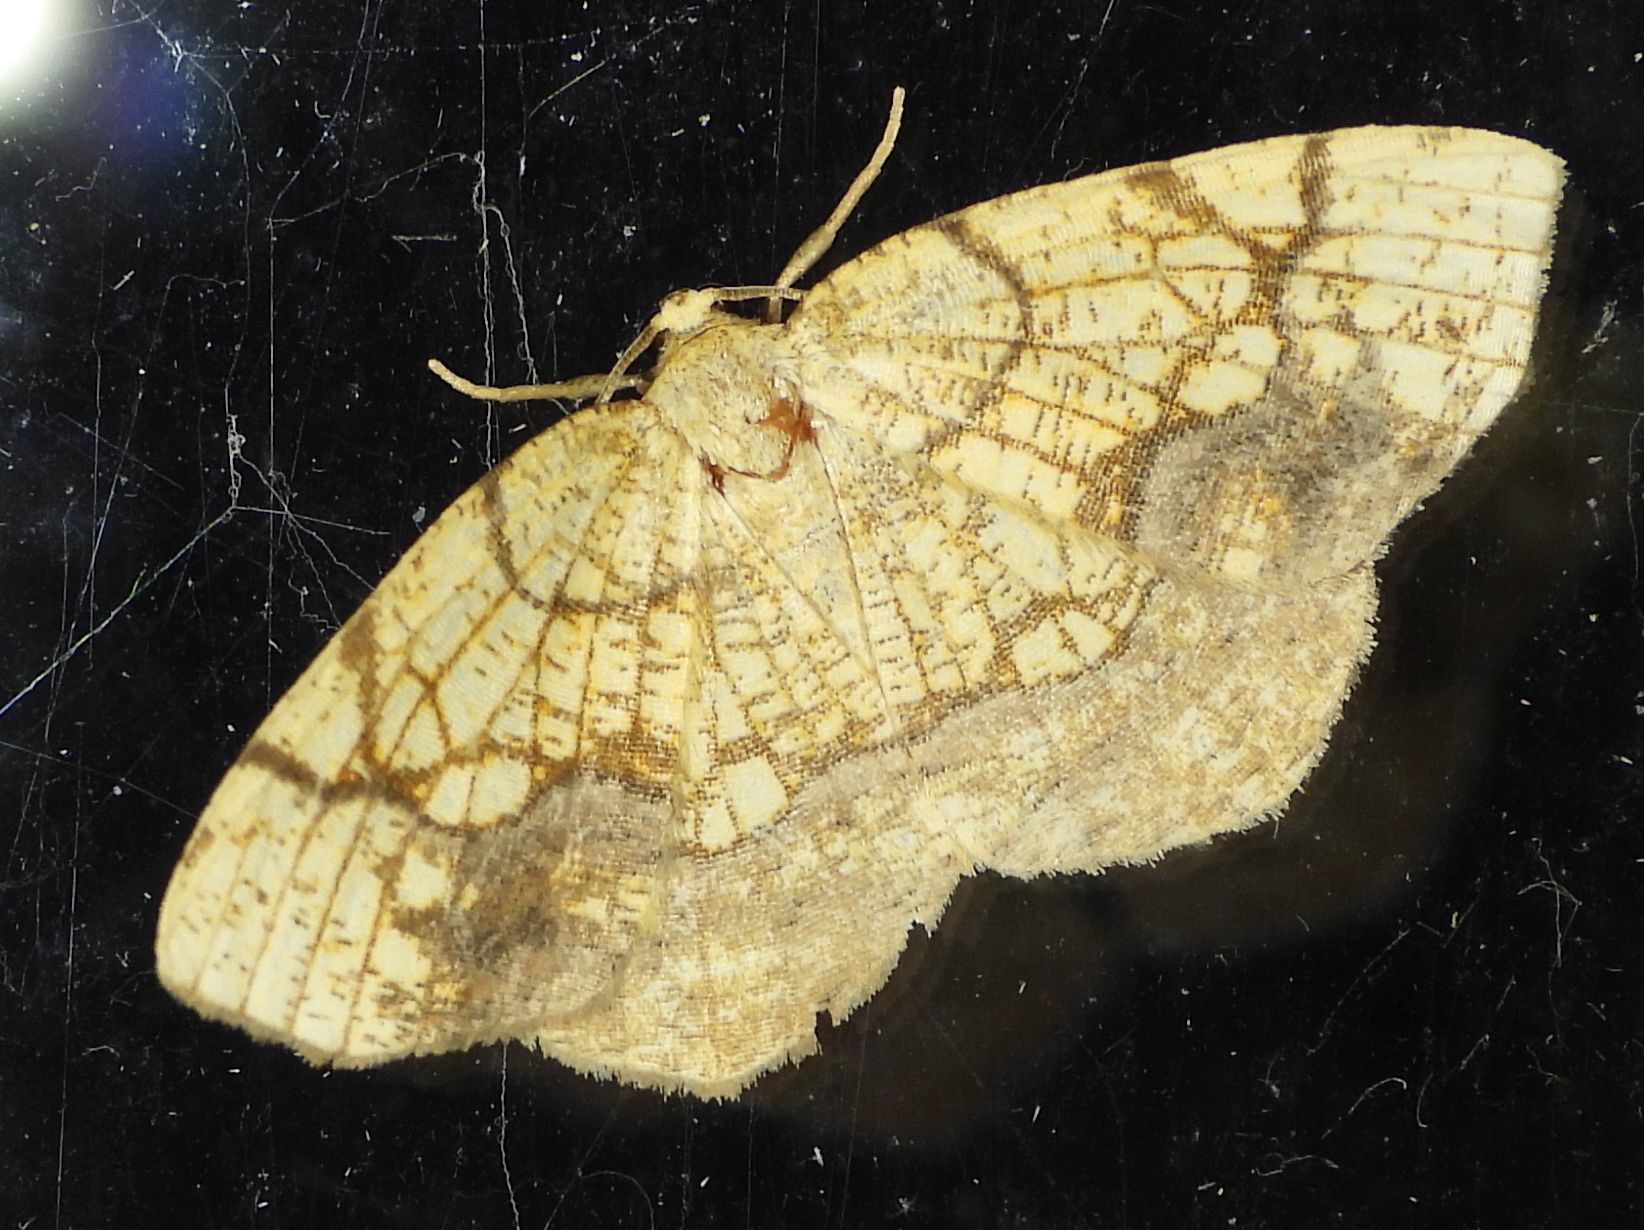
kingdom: Animalia
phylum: Arthropoda
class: Insecta
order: Lepidoptera
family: Geometridae
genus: Nematocampa
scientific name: Nematocampa resistaria
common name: Horned spanworm moth
